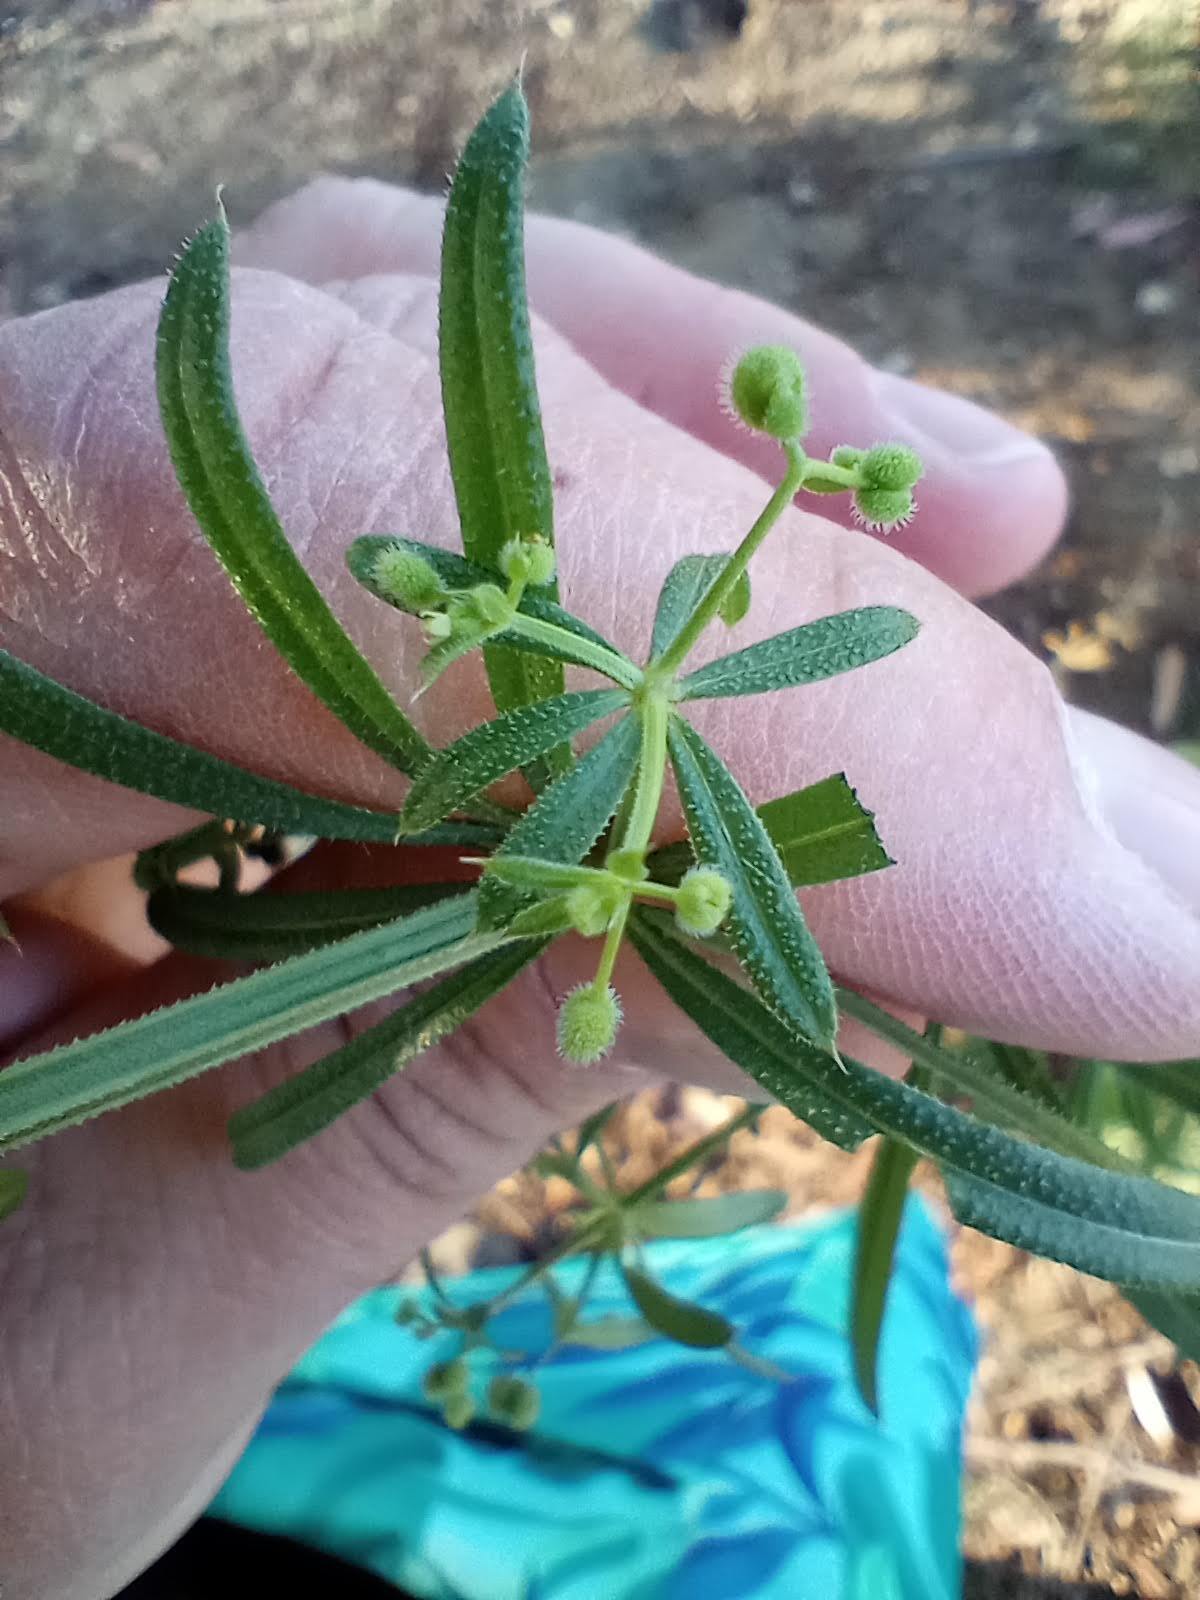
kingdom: Plantae
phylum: Tracheophyta
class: Magnoliopsida
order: Gentianales
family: Rubiaceae
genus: Galium
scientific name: Galium aparine
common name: Cleavers
